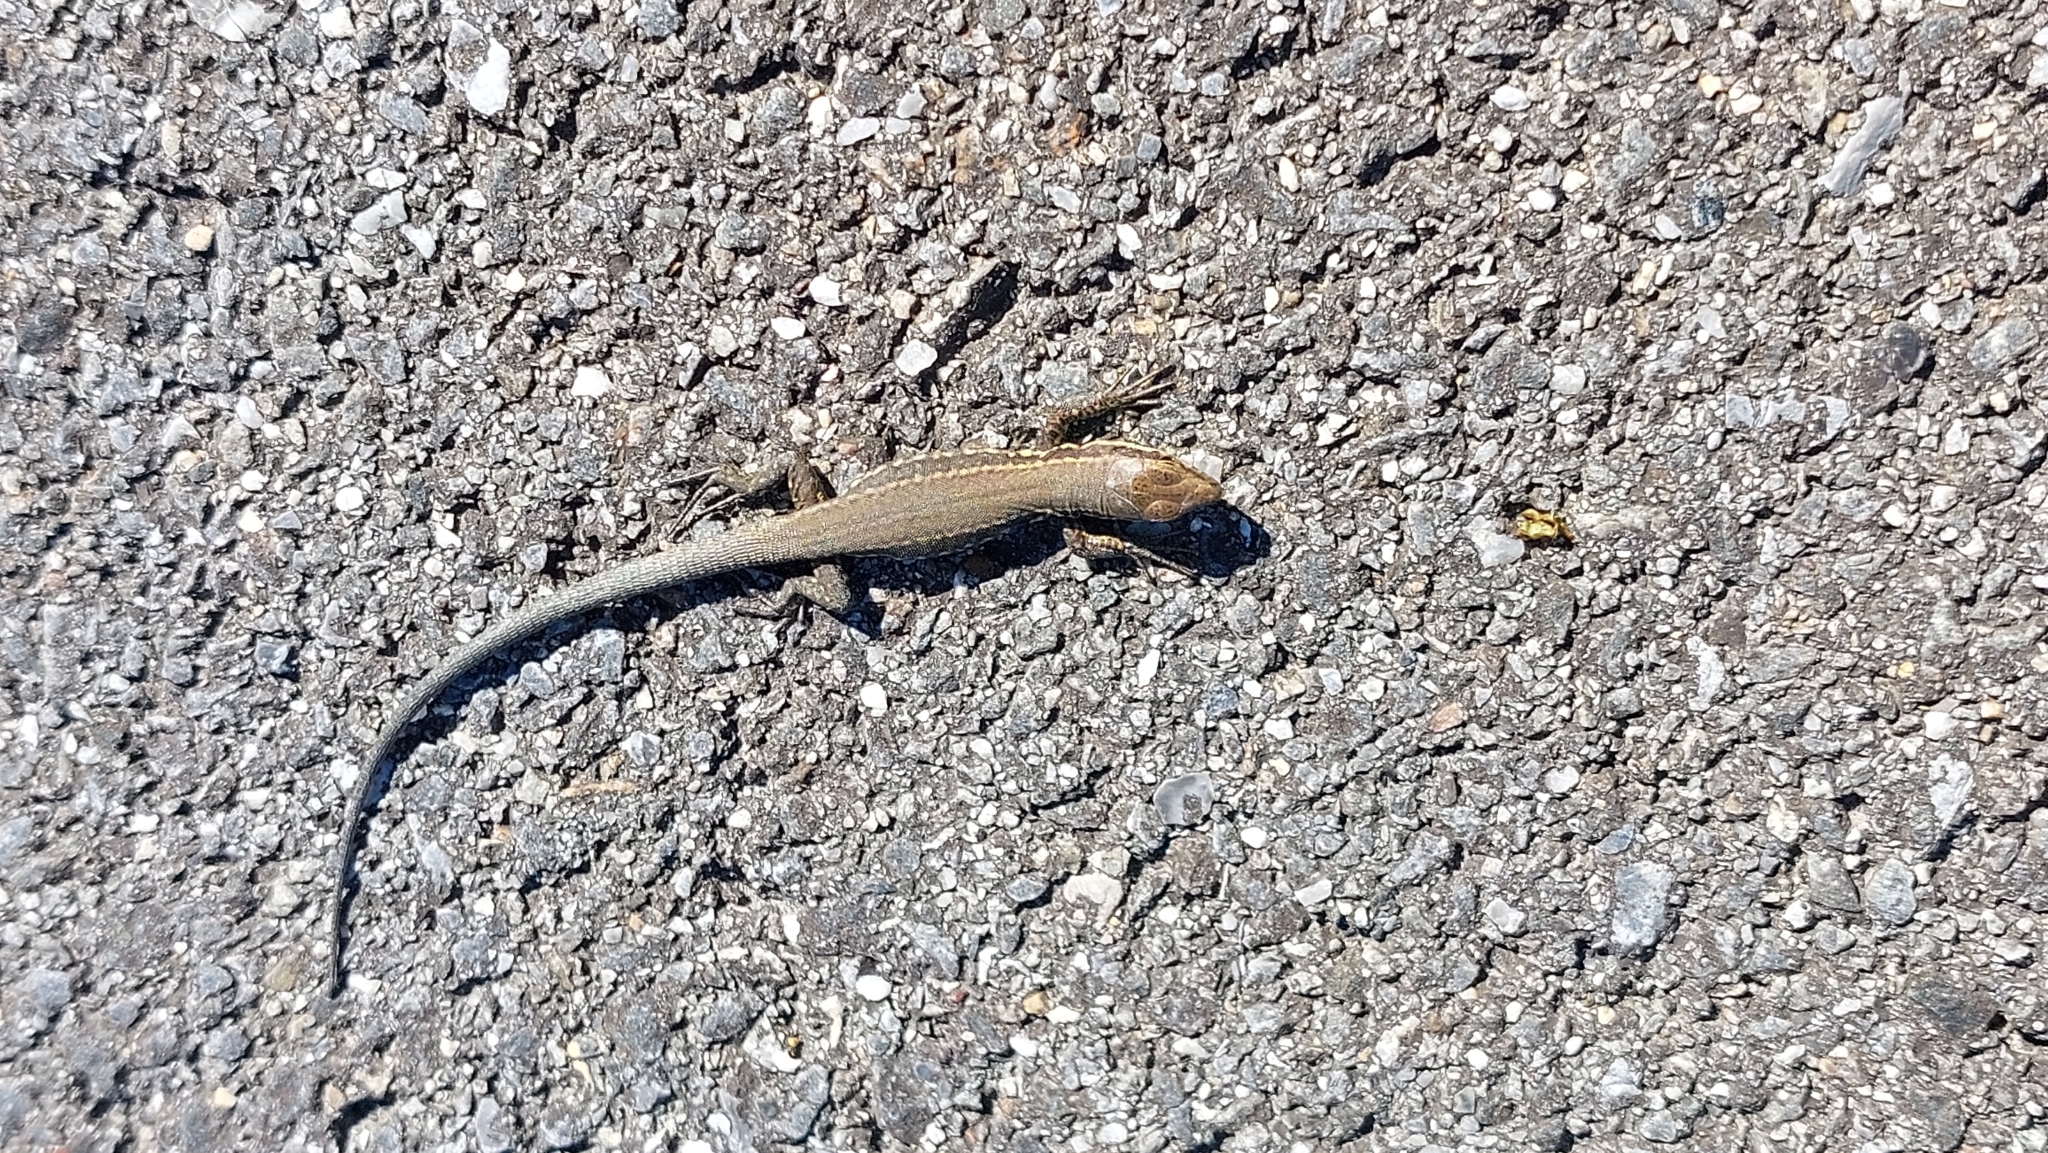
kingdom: Animalia
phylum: Chordata
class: Squamata
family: Lacertidae
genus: Podarcis
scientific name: Podarcis muralis
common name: Common wall lizard
